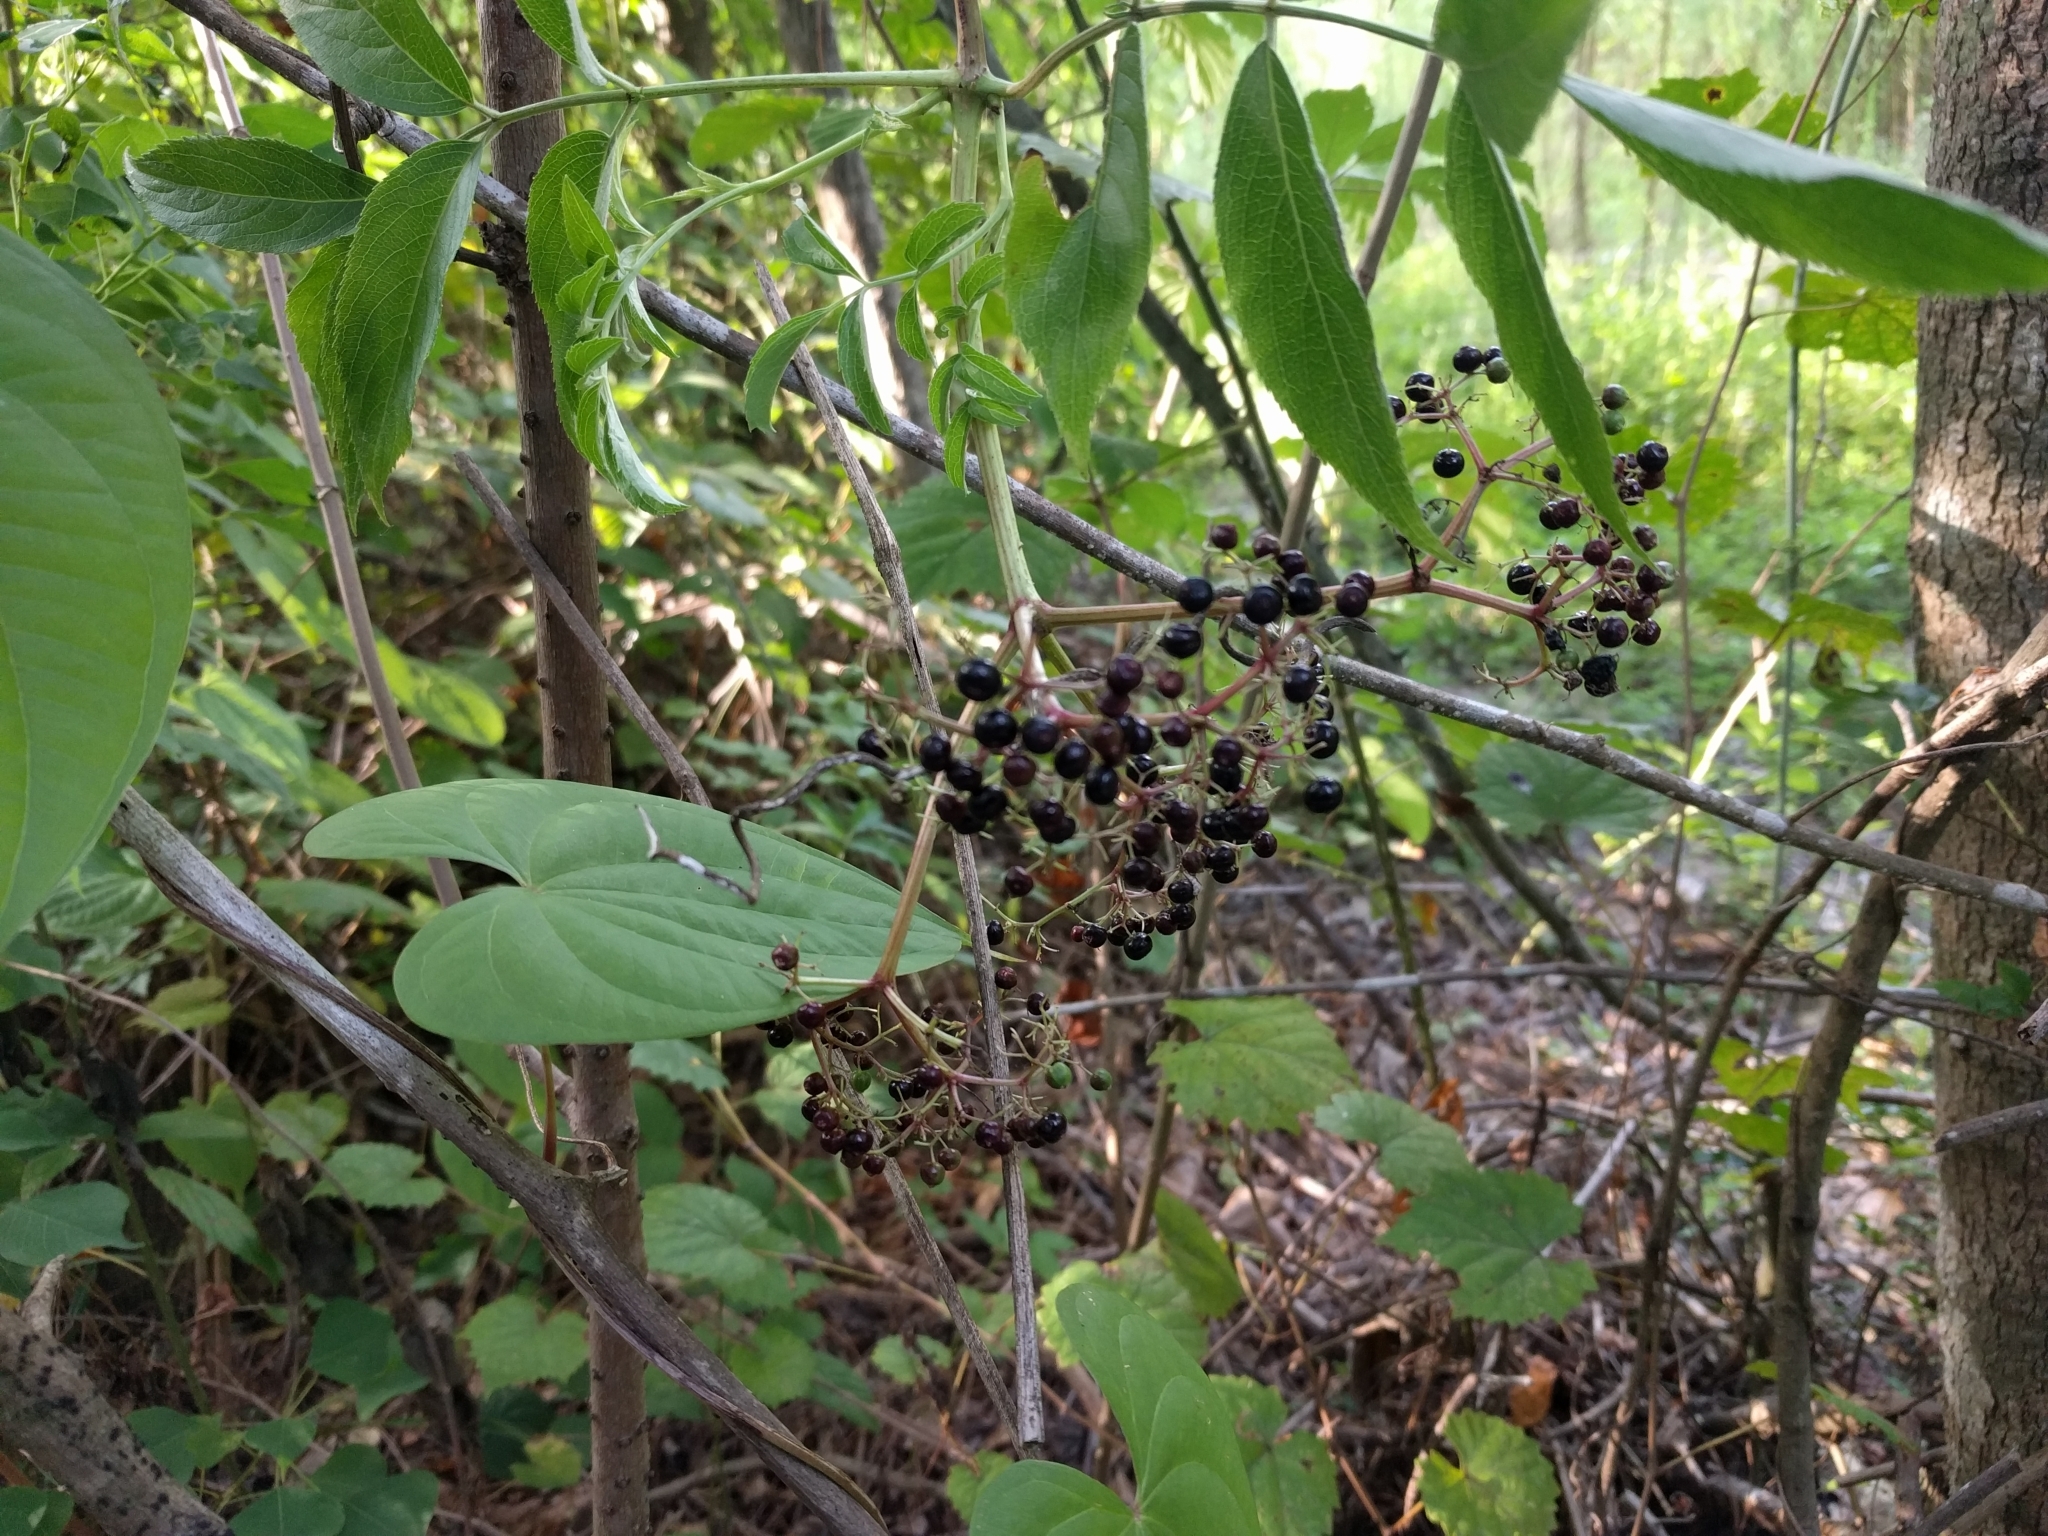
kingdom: Plantae
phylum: Tracheophyta
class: Magnoliopsida
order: Dipsacales
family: Viburnaceae
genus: Sambucus
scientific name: Sambucus canadensis
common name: American elder
